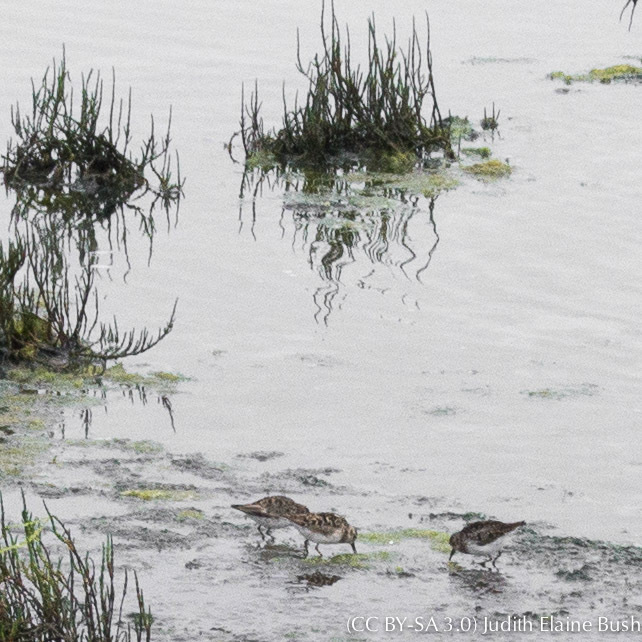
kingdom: Animalia
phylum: Chordata
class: Aves
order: Charadriiformes
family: Scolopacidae
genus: Calidris
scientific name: Calidris minutilla
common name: Least sandpiper
